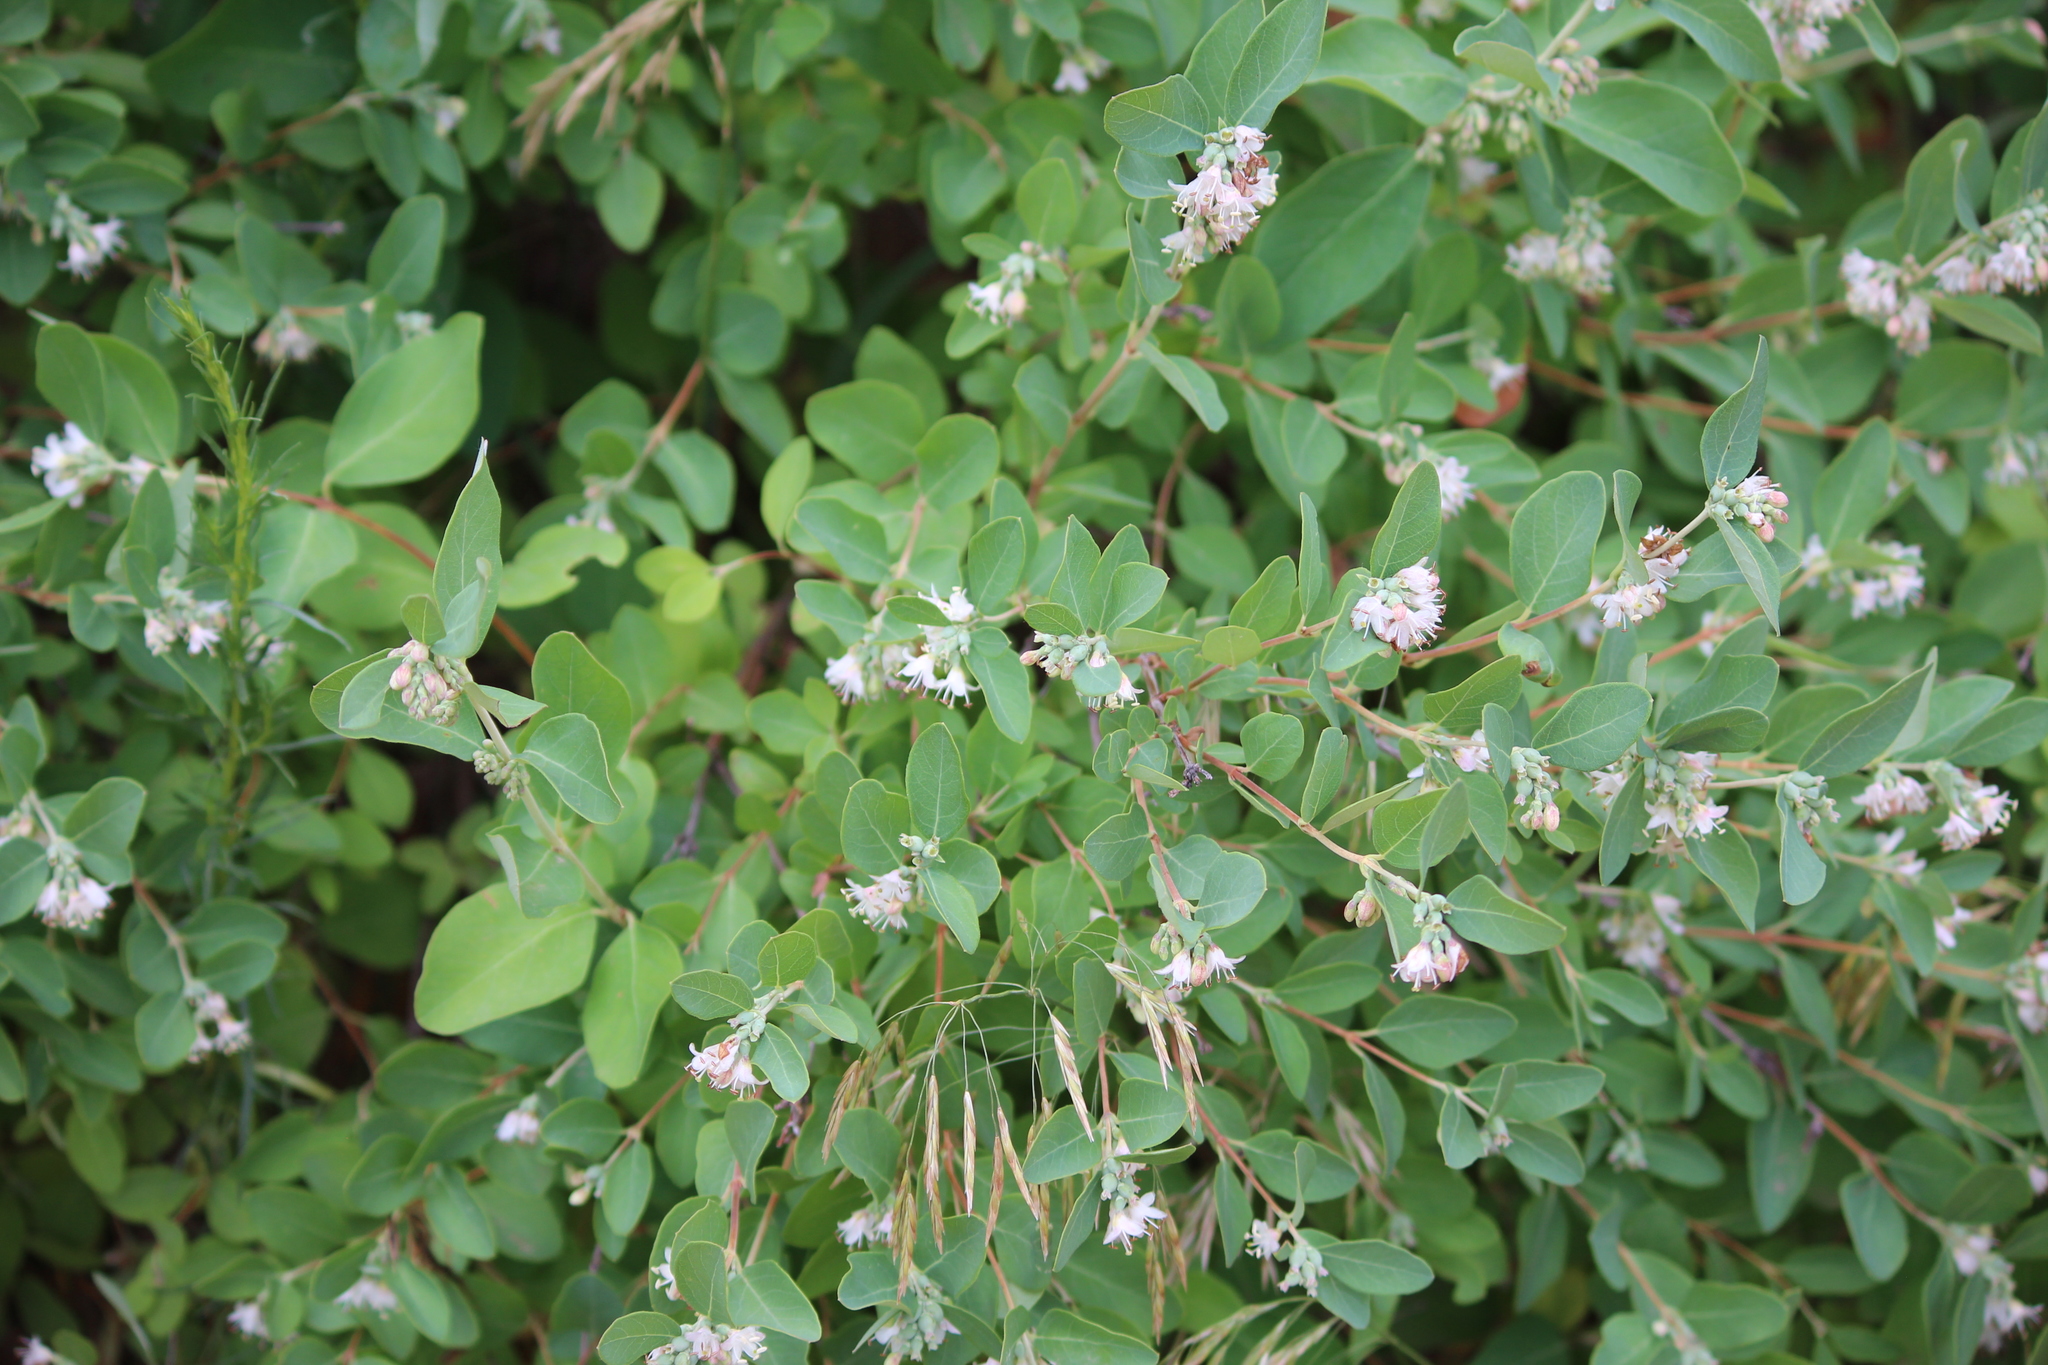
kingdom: Plantae
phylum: Tracheophyta
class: Magnoliopsida
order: Dipsacales
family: Caprifoliaceae
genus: Symphoricarpos
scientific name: Symphoricarpos occidentalis
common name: Wolfberry
